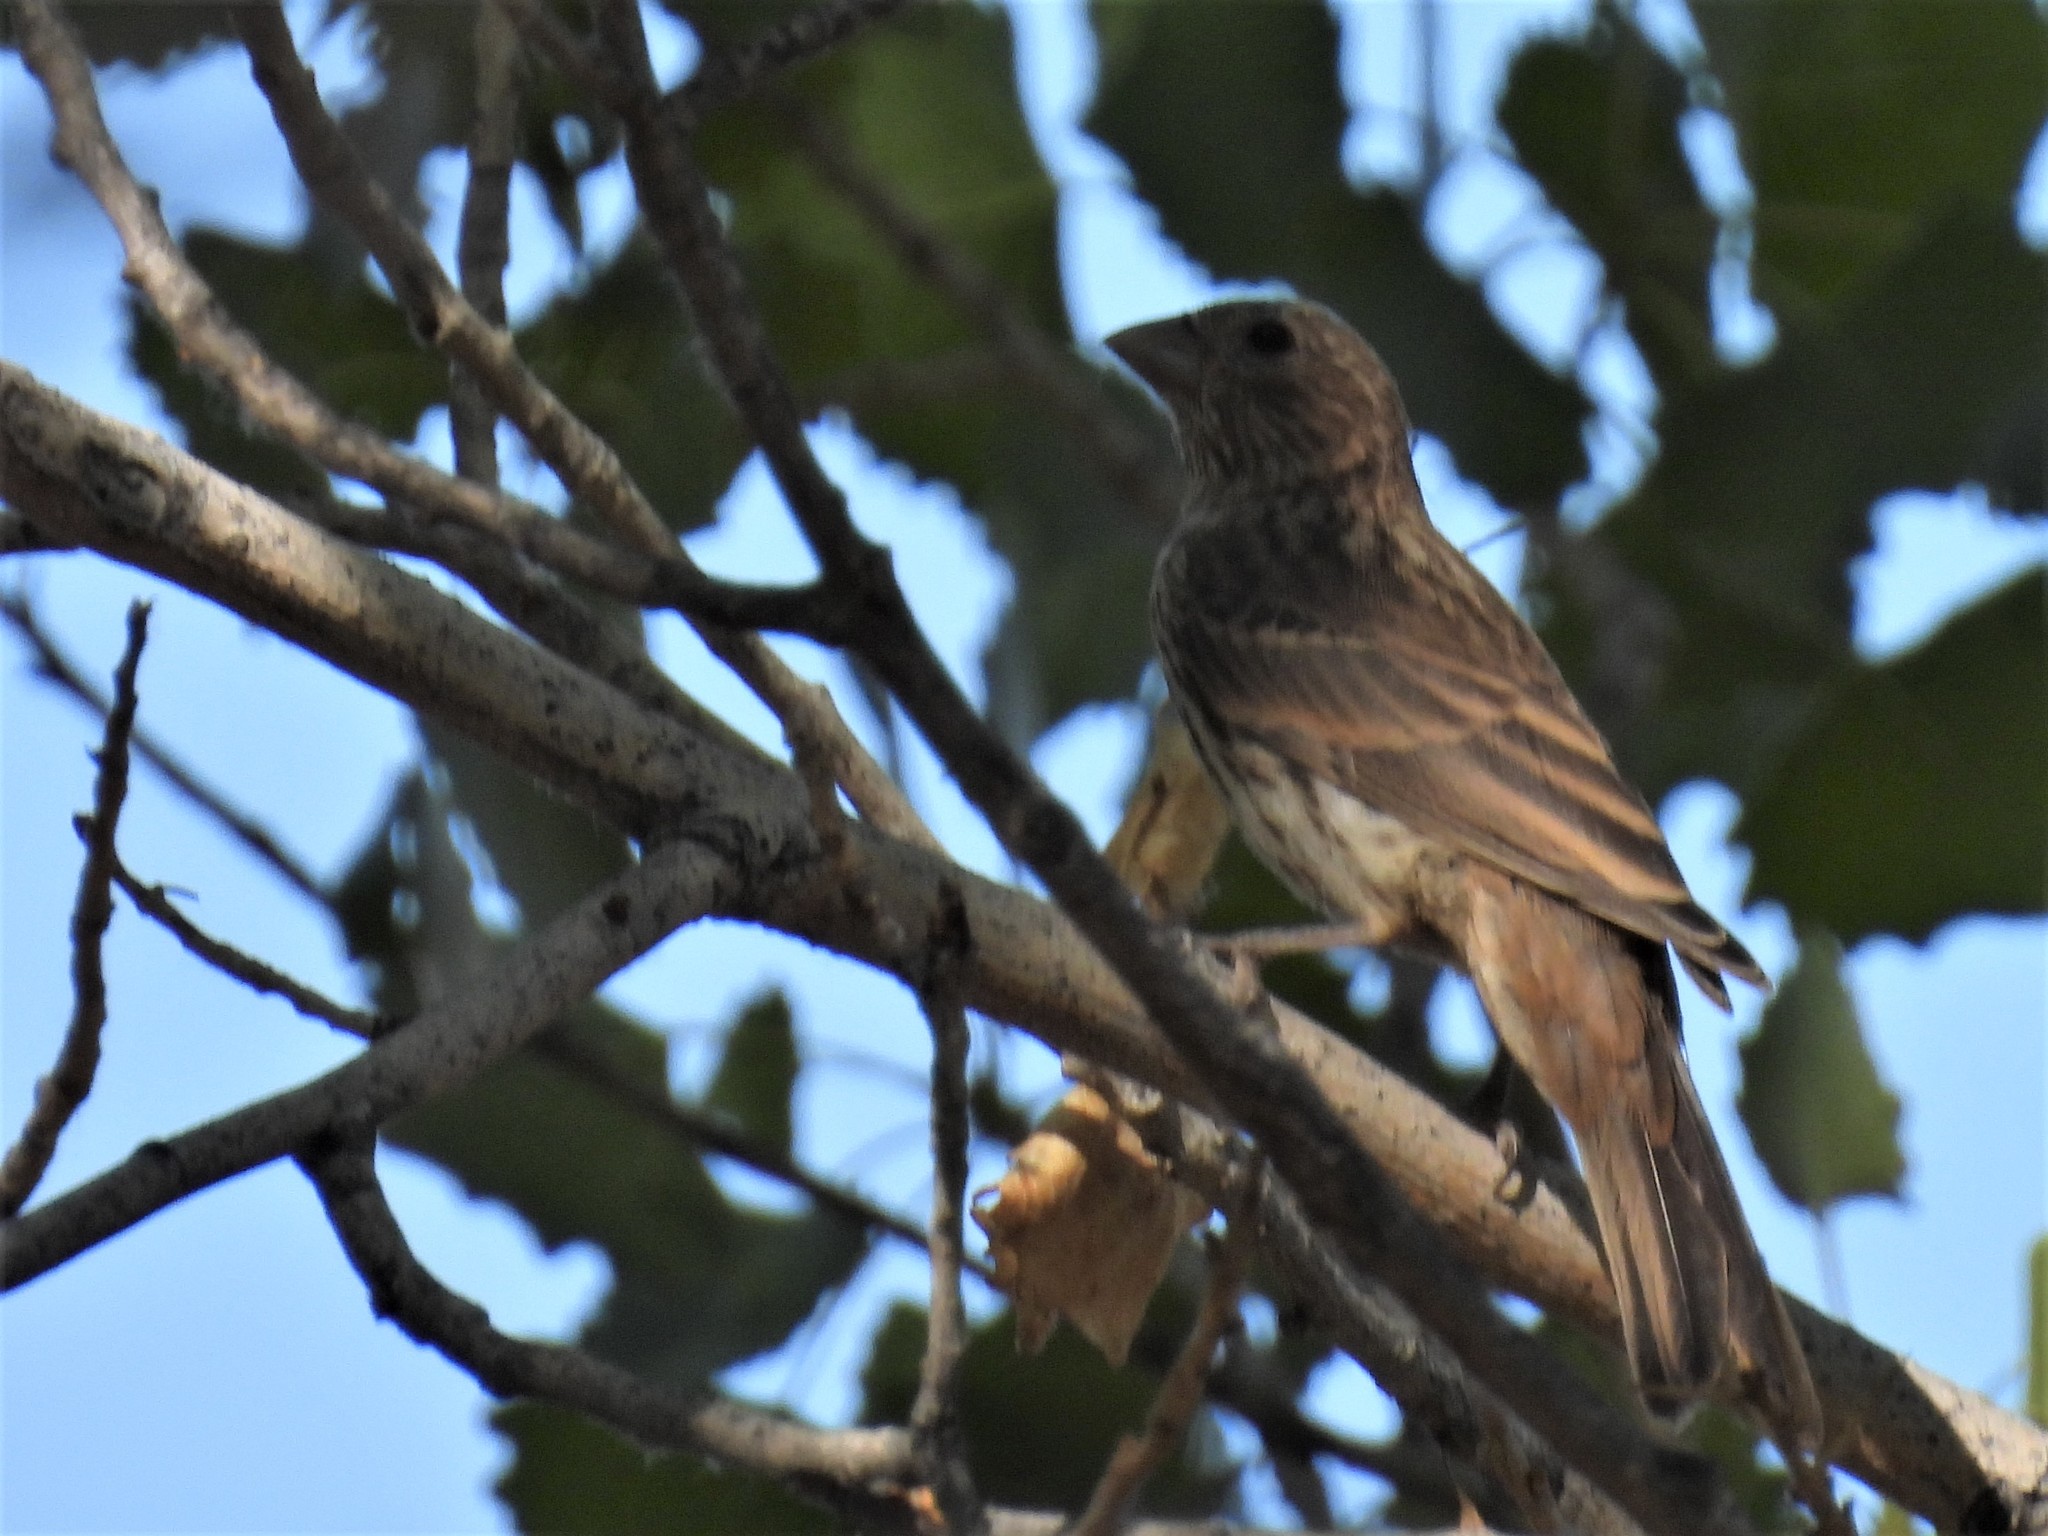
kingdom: Animalia
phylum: Chordata
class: Aves
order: Passeriformes
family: Fringillidae
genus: Haemorhous
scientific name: Haemorhous mexicanus
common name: House finch
